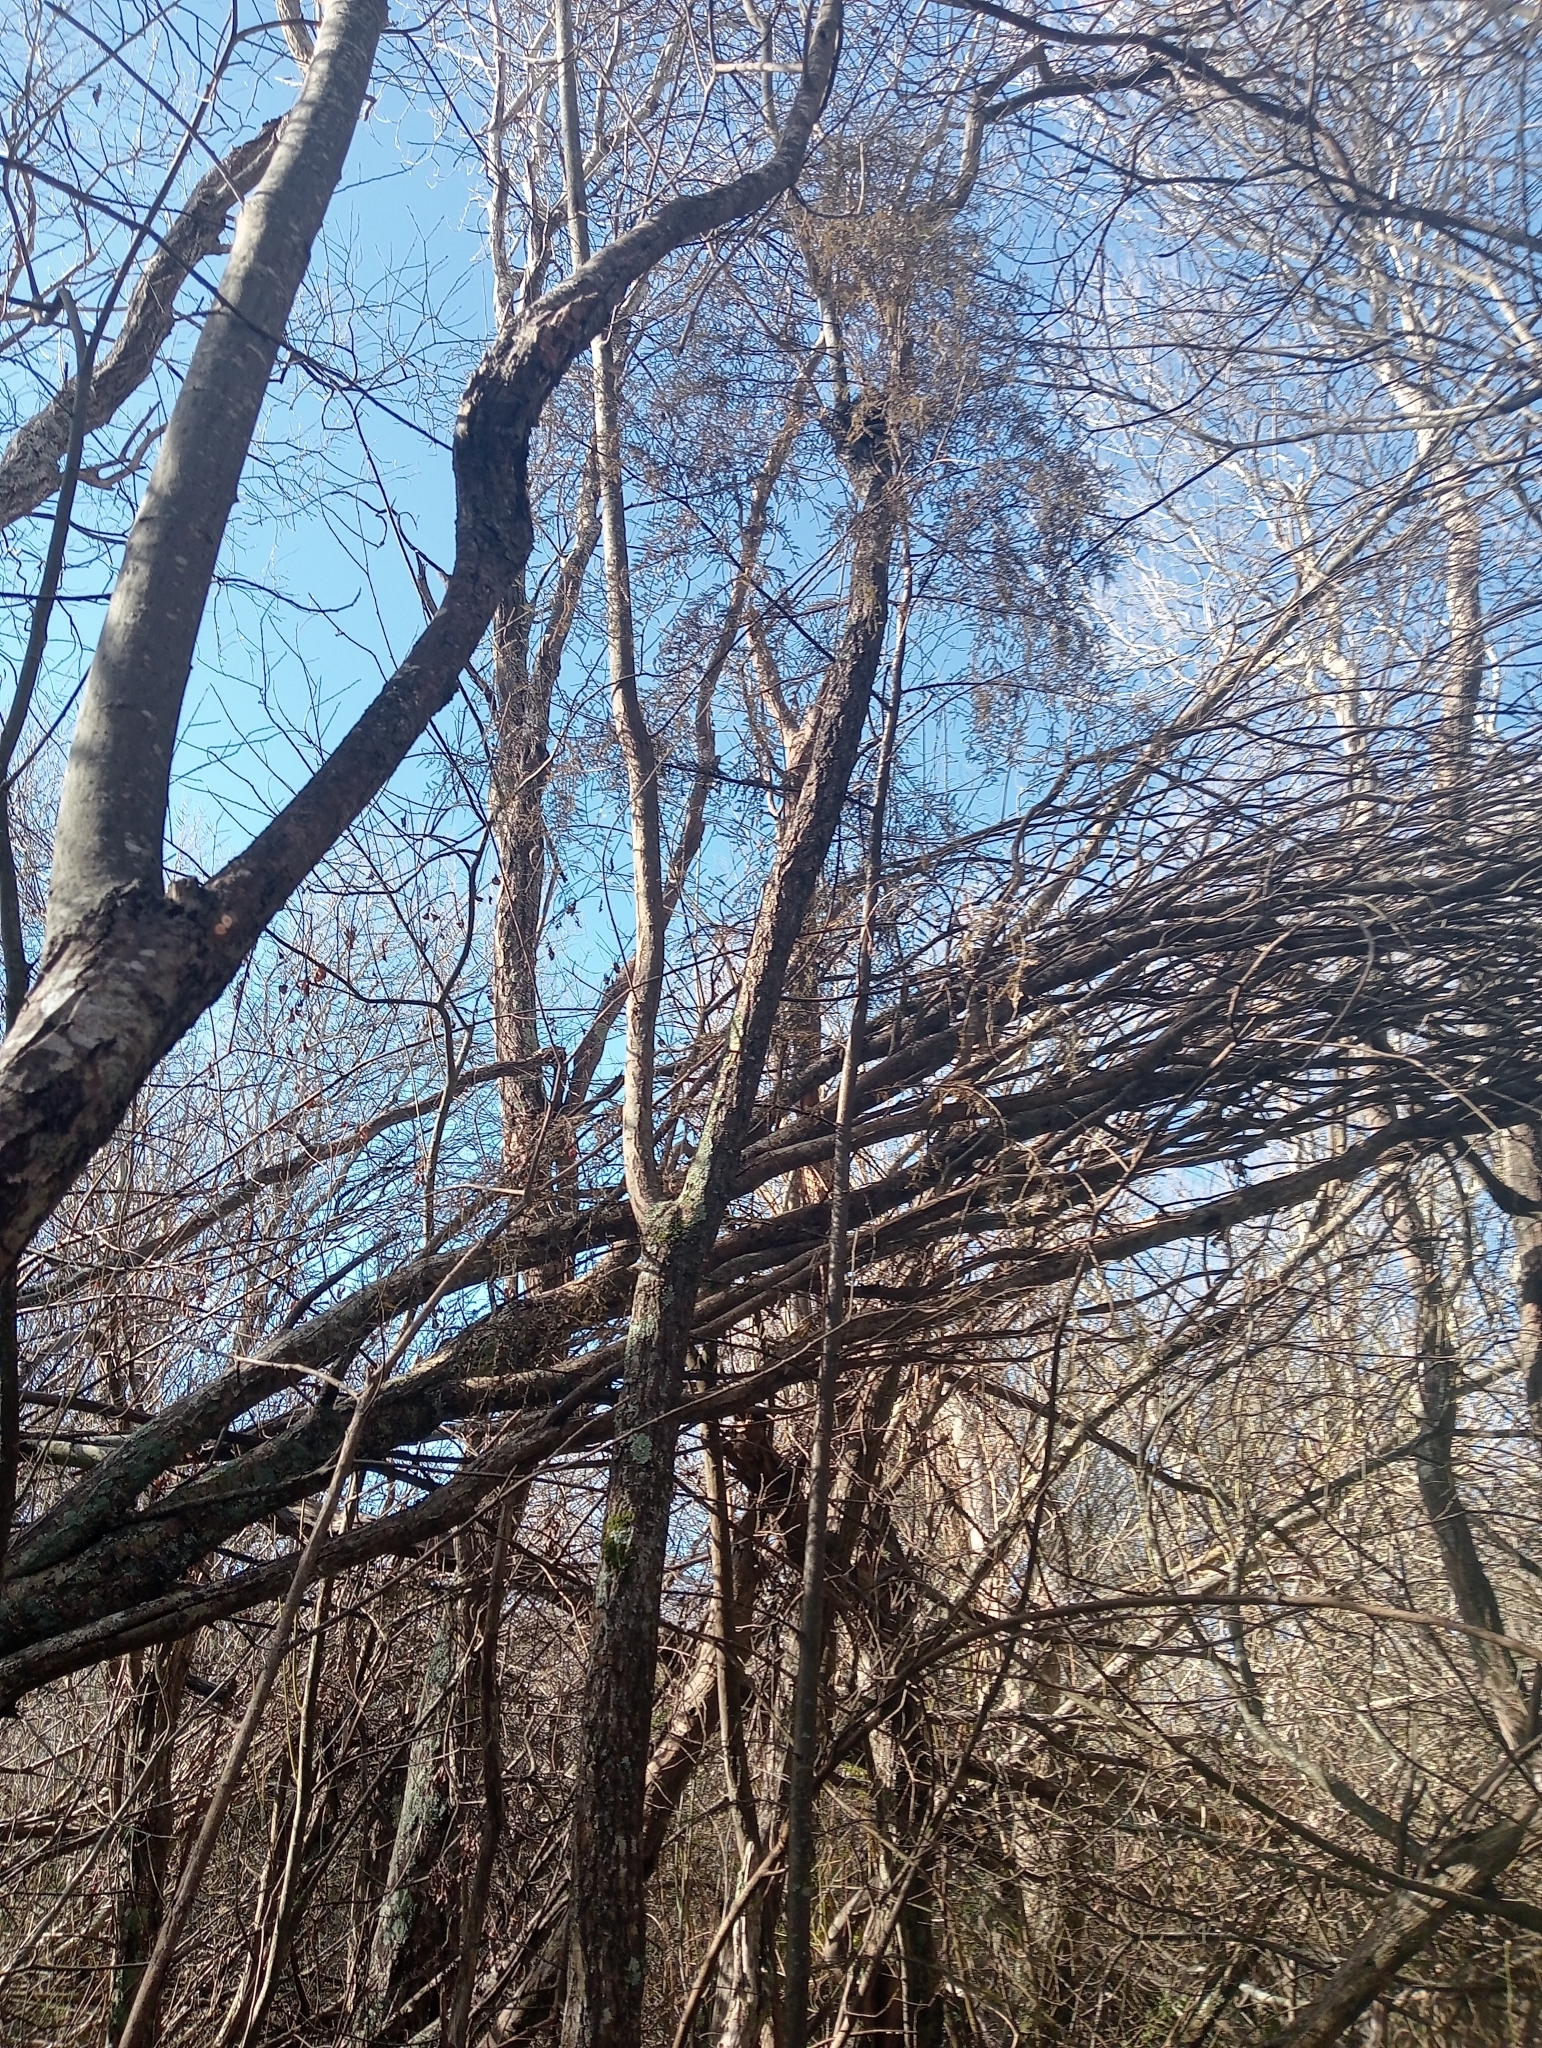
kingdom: Plantae
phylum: Tracheophyta
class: Pinopsida
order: Pinales
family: Podocarpaceae
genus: Dacrycarpus
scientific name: Dacrycarpus dacrydioides
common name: White pine
